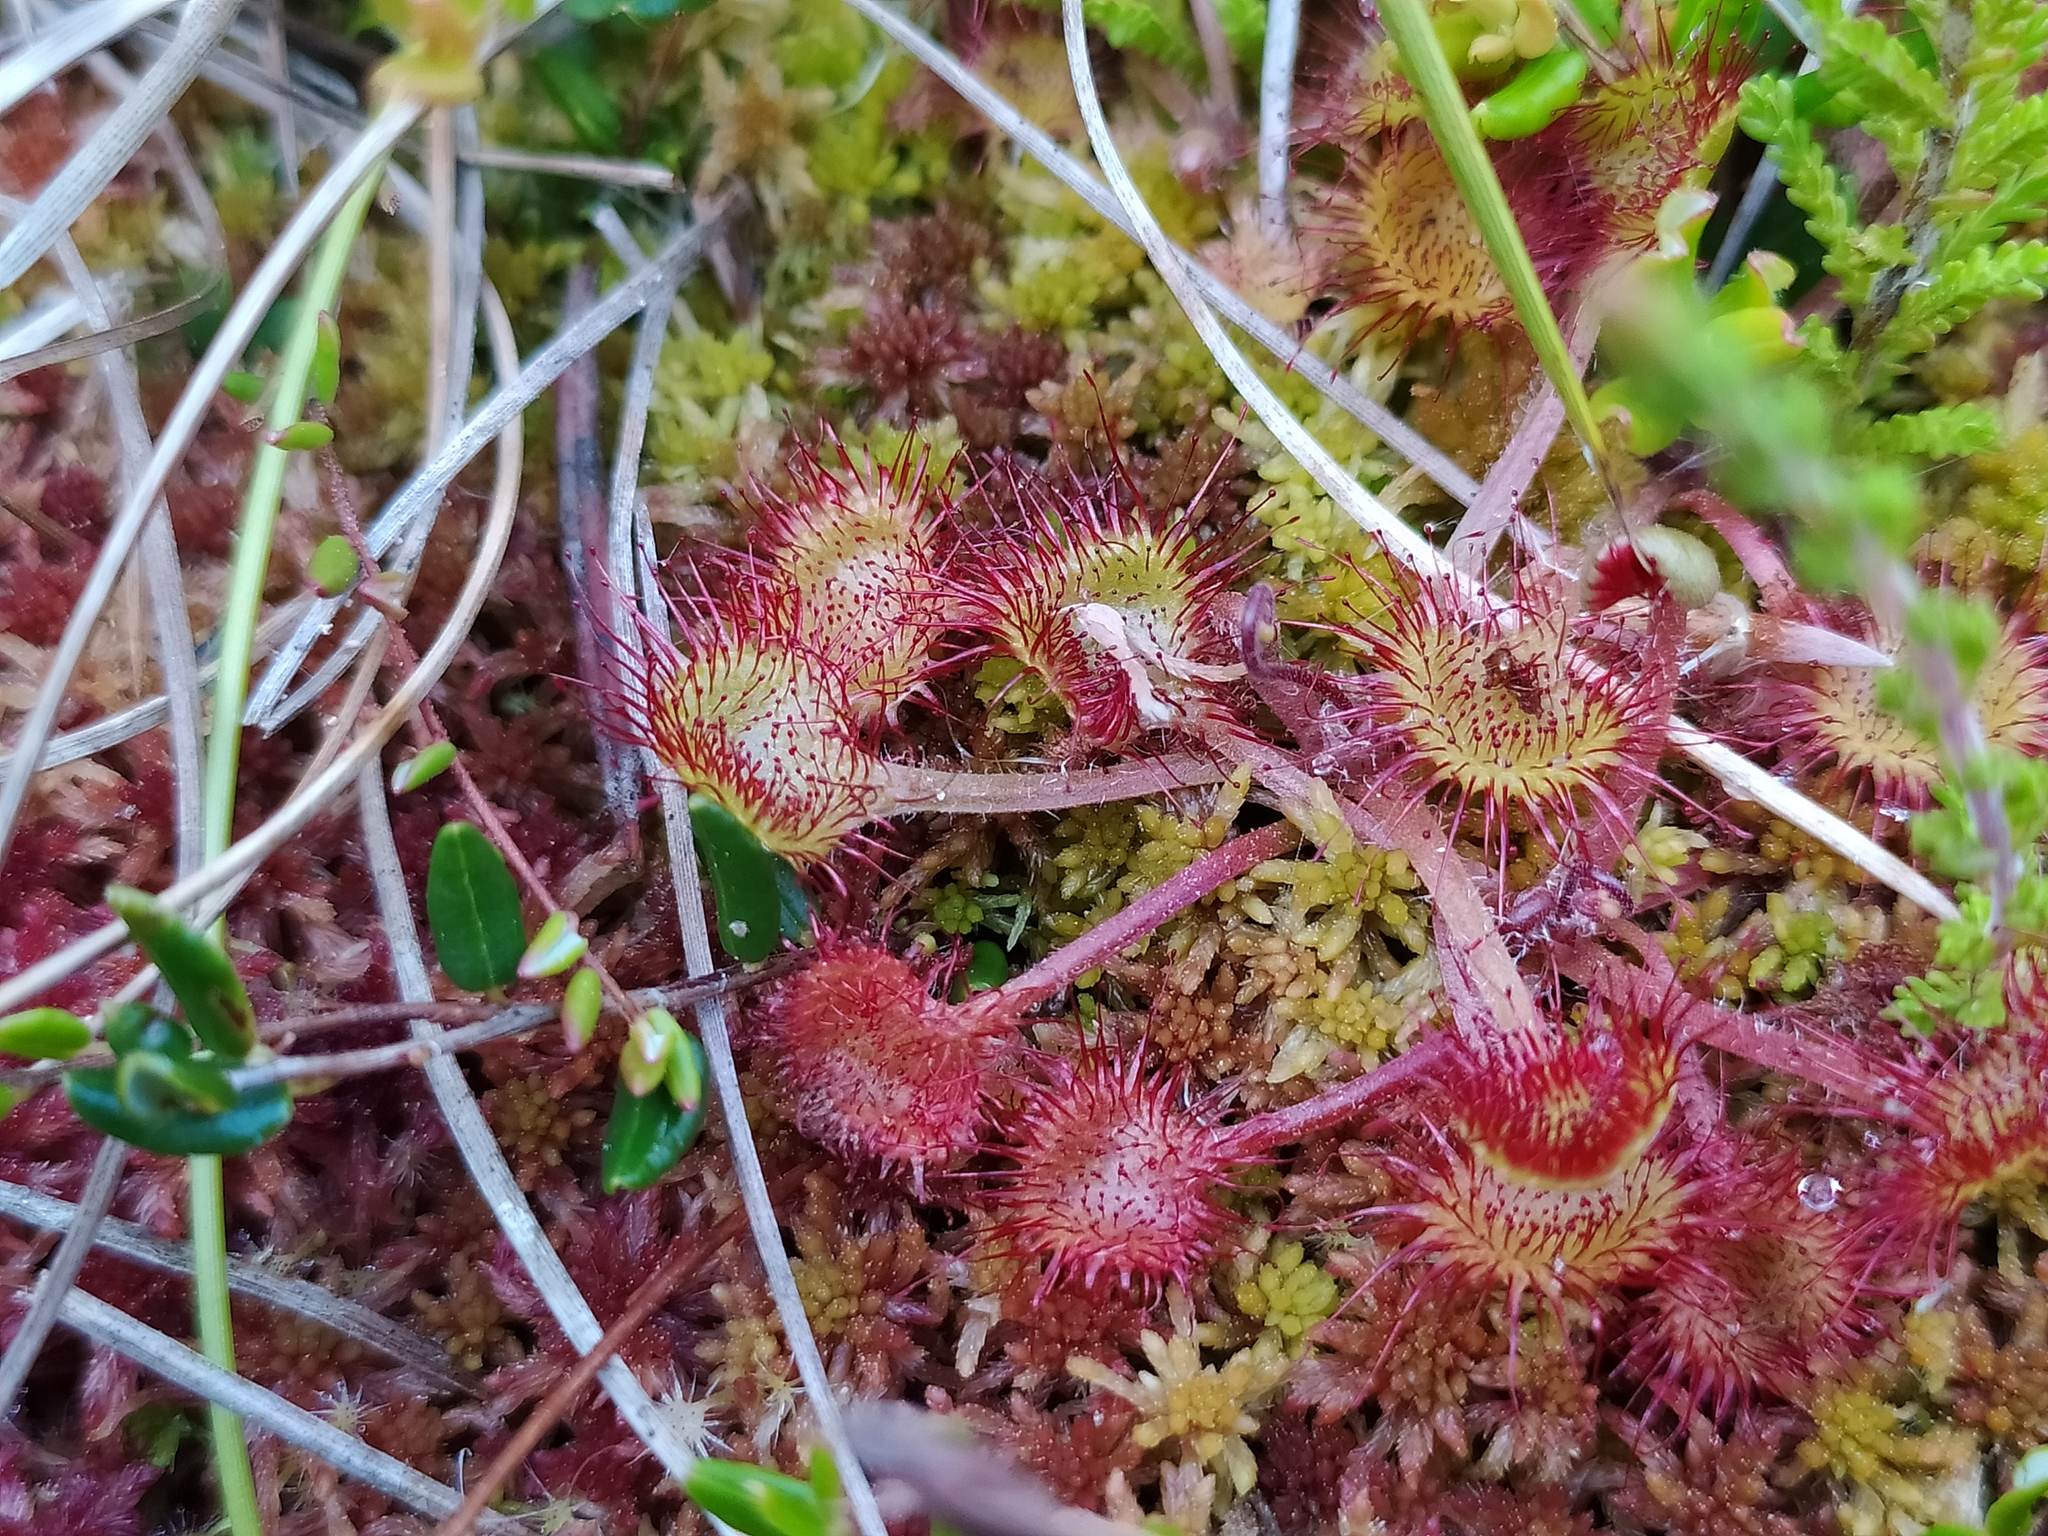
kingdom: Plantae
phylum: Tracheophyta
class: Magnoliopsida
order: Caryophyllales
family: Droseraceae
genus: Drosera
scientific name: Drosera rotundifolia
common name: Round-leaved sundew
